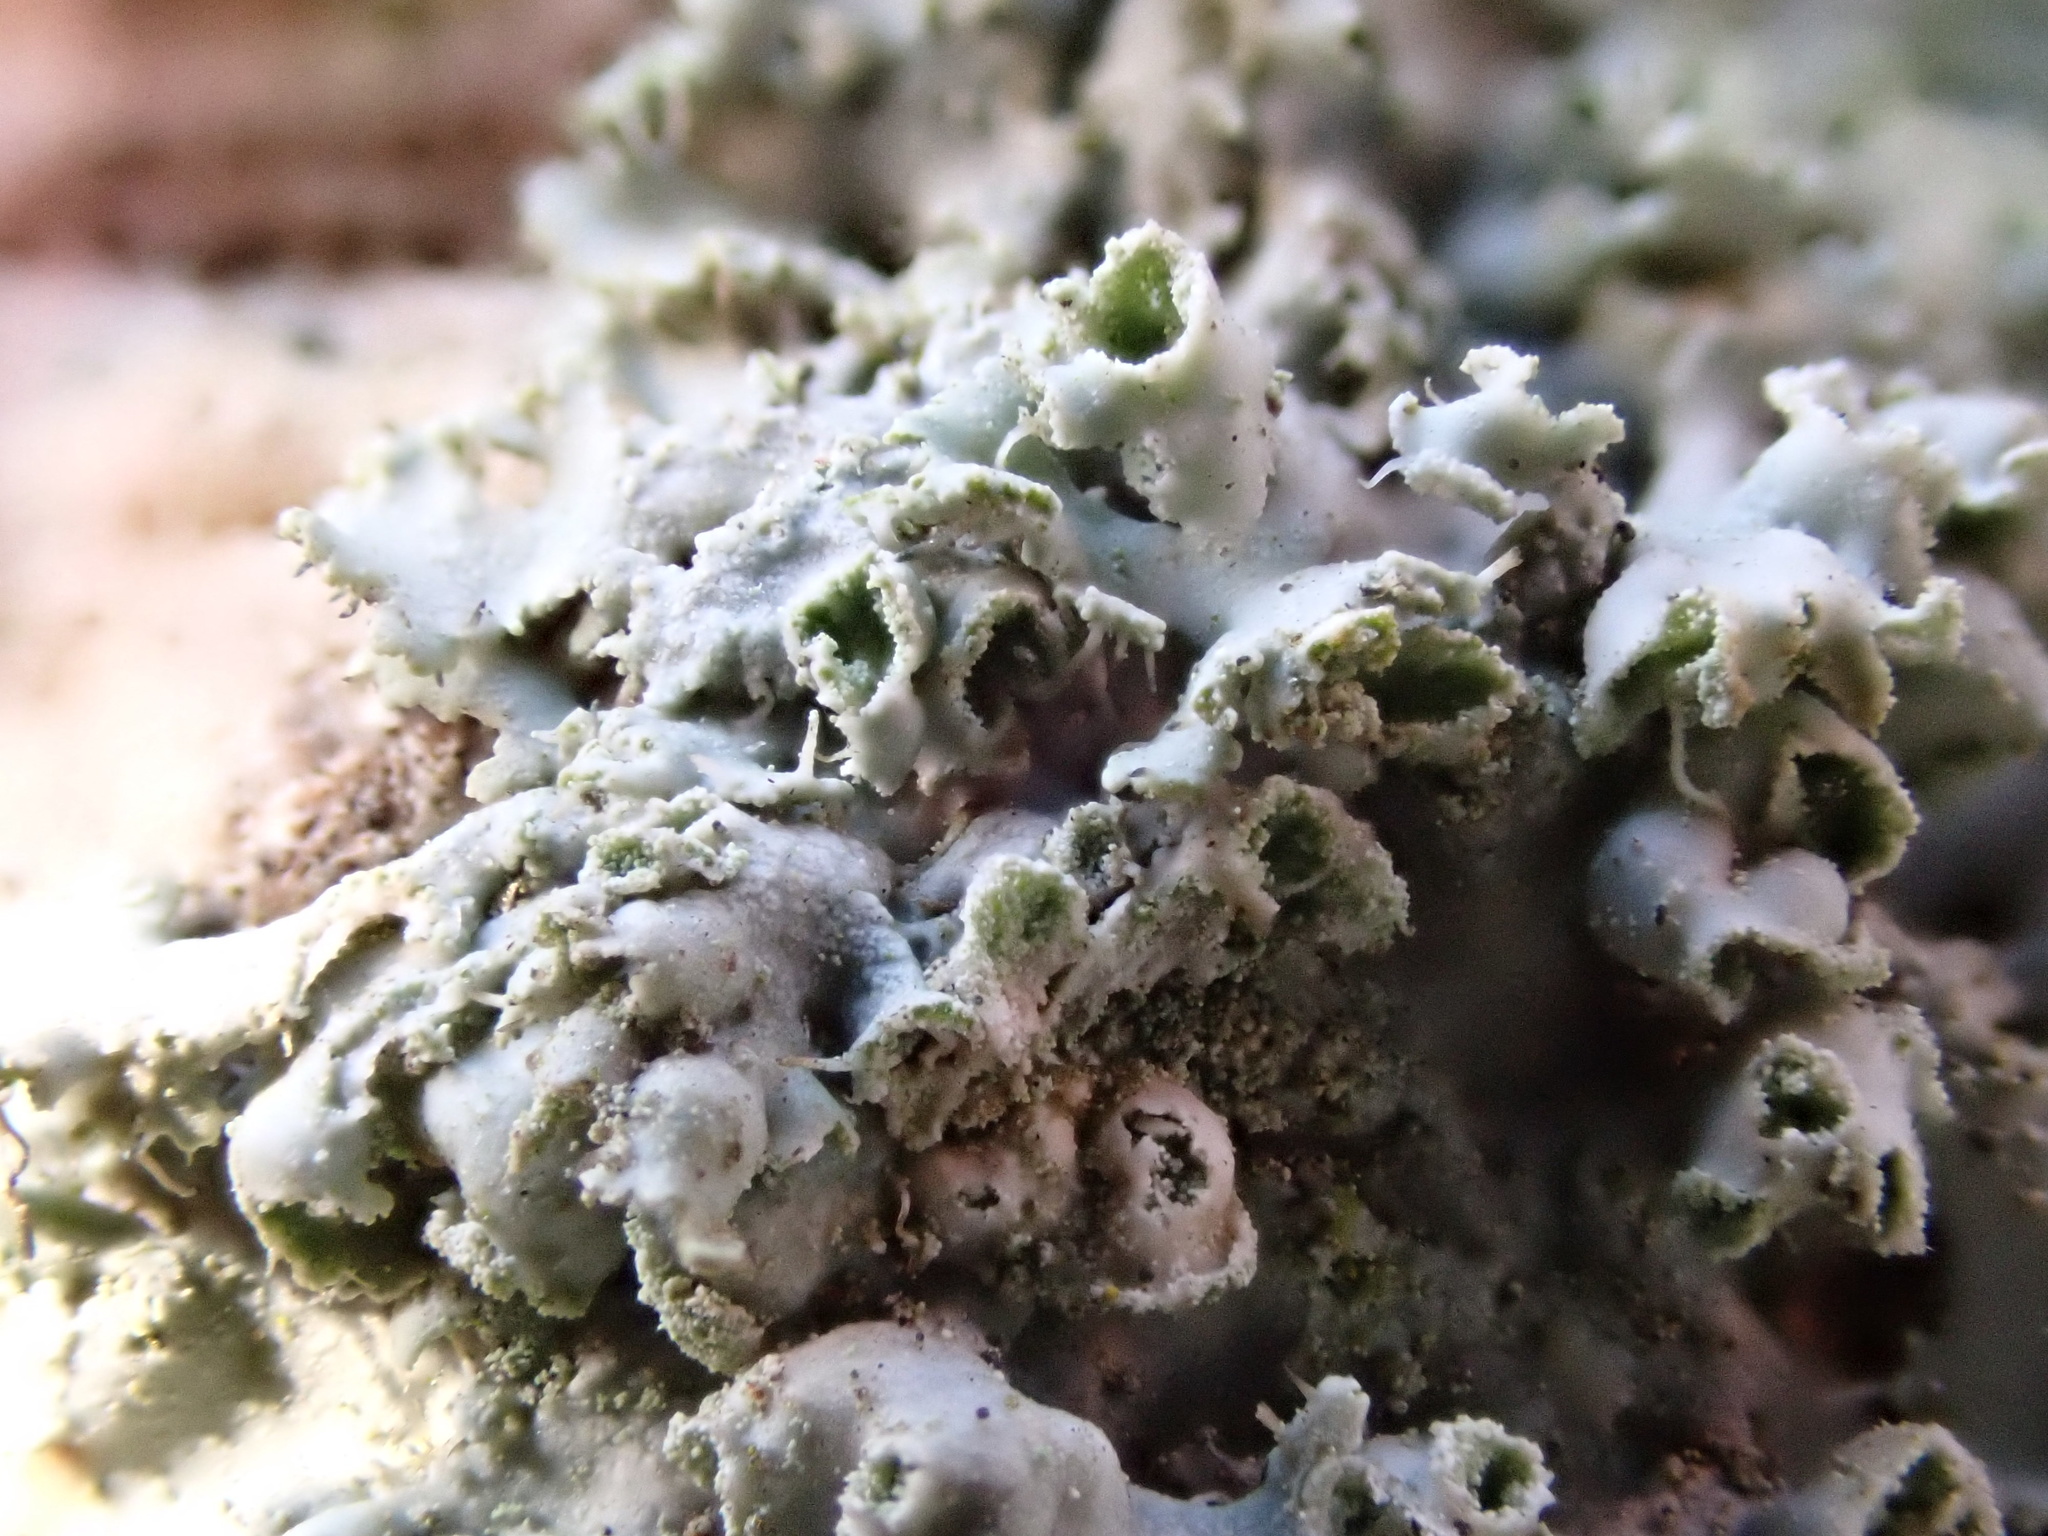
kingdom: Fungi
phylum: Ascomycota
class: Lecanoromycetes
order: Caliciales
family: Physciaceae
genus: Physcia
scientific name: Physcia adscendens
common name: Hooded rosette lichen
